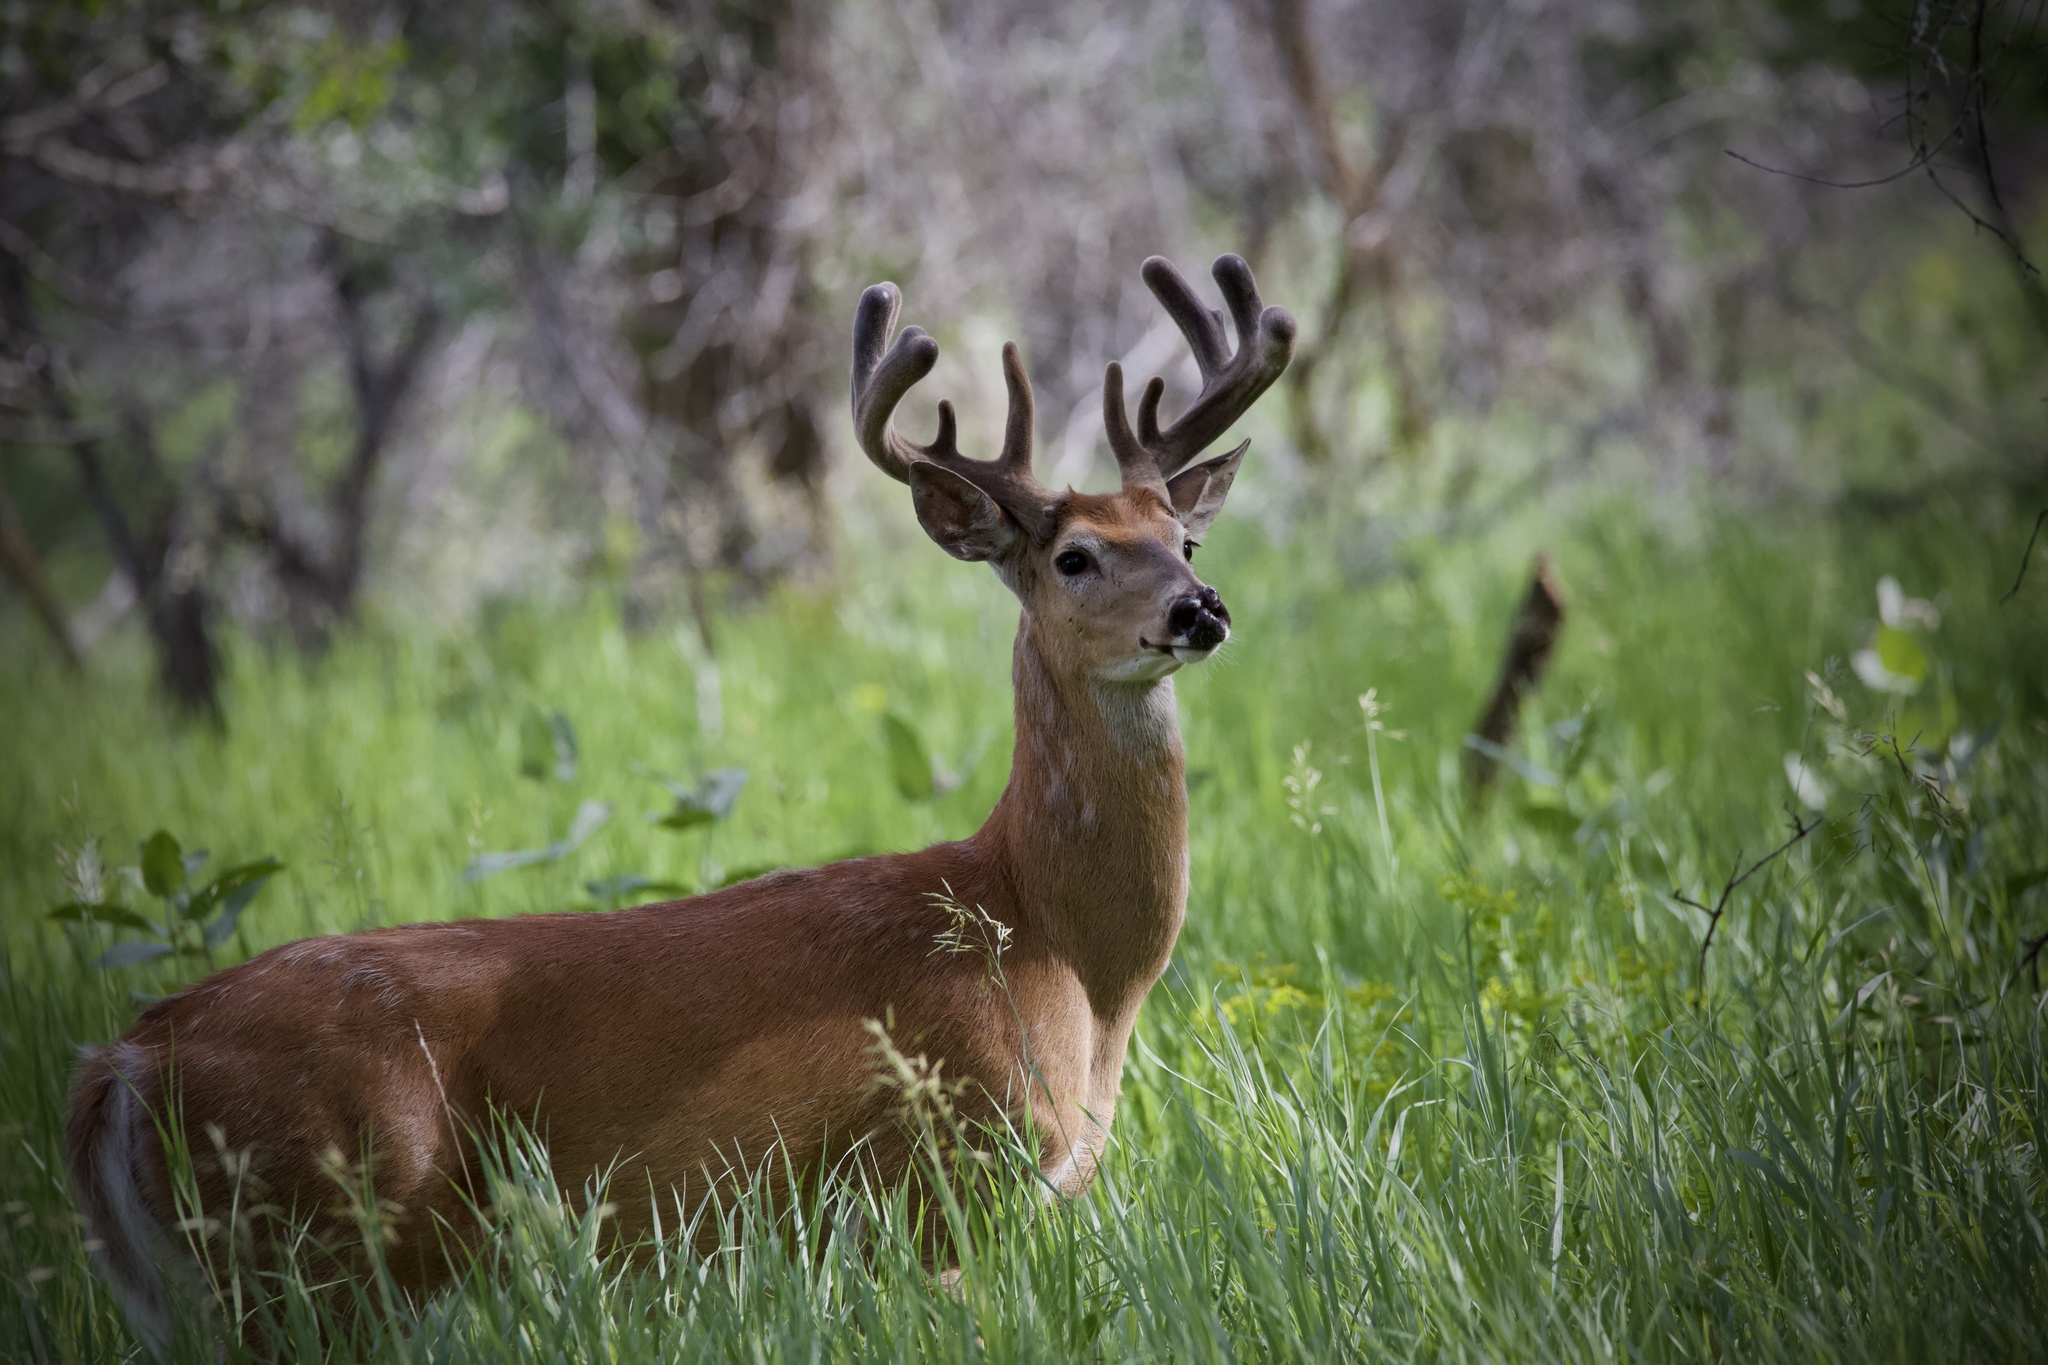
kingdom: Animalia
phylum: Chordata
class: Mammalia
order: Artiodactyla
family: Cervidae
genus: Odocoileus
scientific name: Odocoileus virginianus
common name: White-tailed deer
